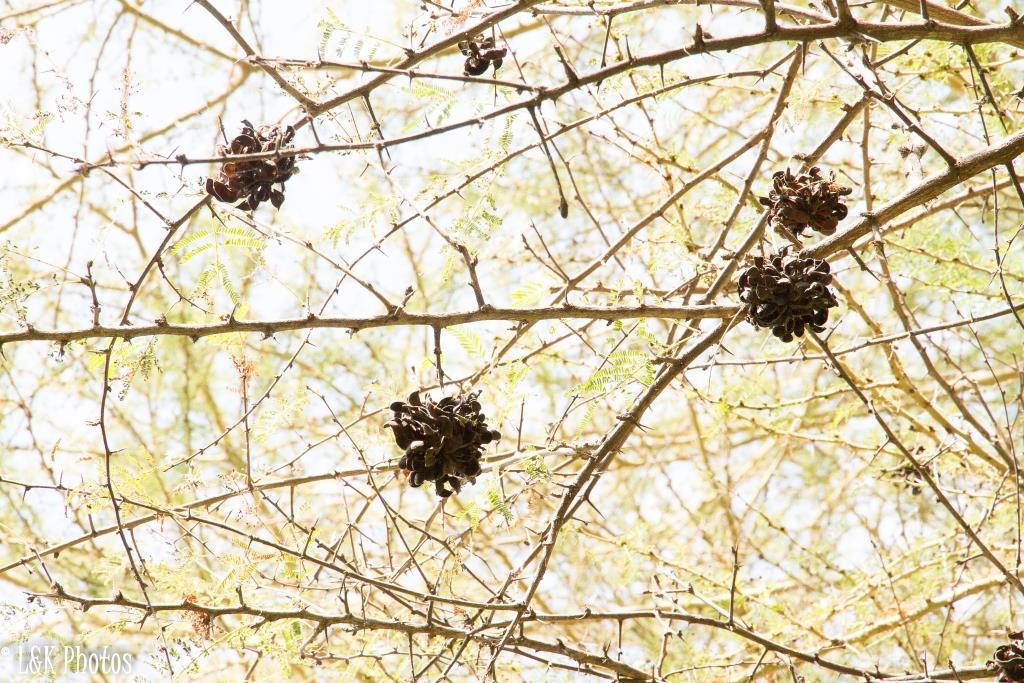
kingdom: Plantae
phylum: Tracheophyta
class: Magnoliopsida
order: Fabales
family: Fabaceae
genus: Dichrostachys
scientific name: Dichrostachys cinerea
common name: Sicklebush
